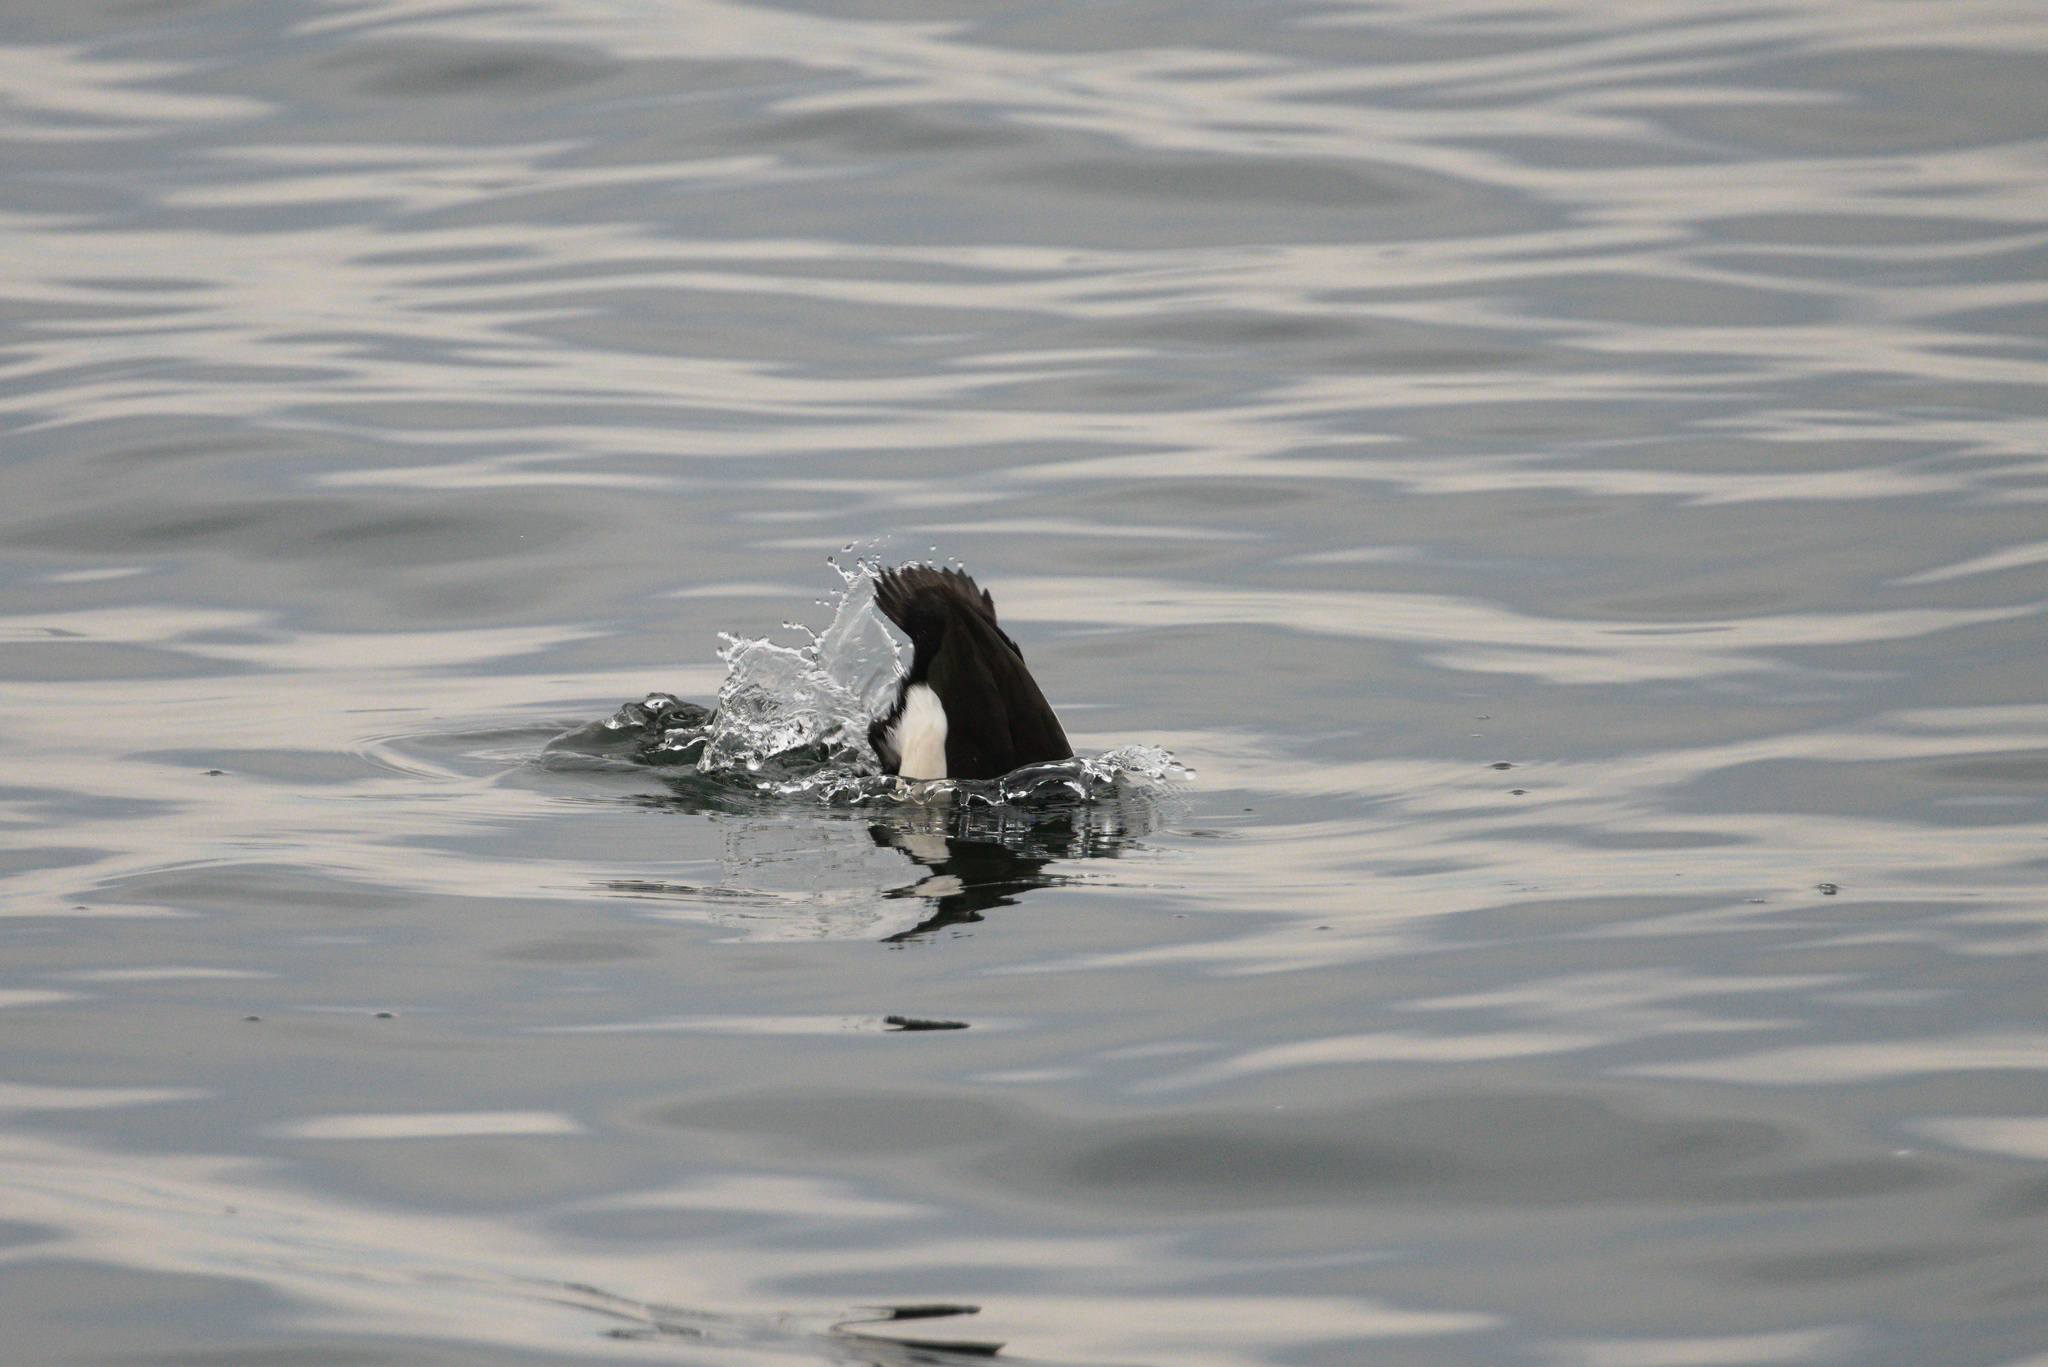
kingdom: Animalia
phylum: Chordata
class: Aves
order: Anseriformes
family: Anatidae
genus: Aythya
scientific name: Aythya fuligula
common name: Tufted duck
